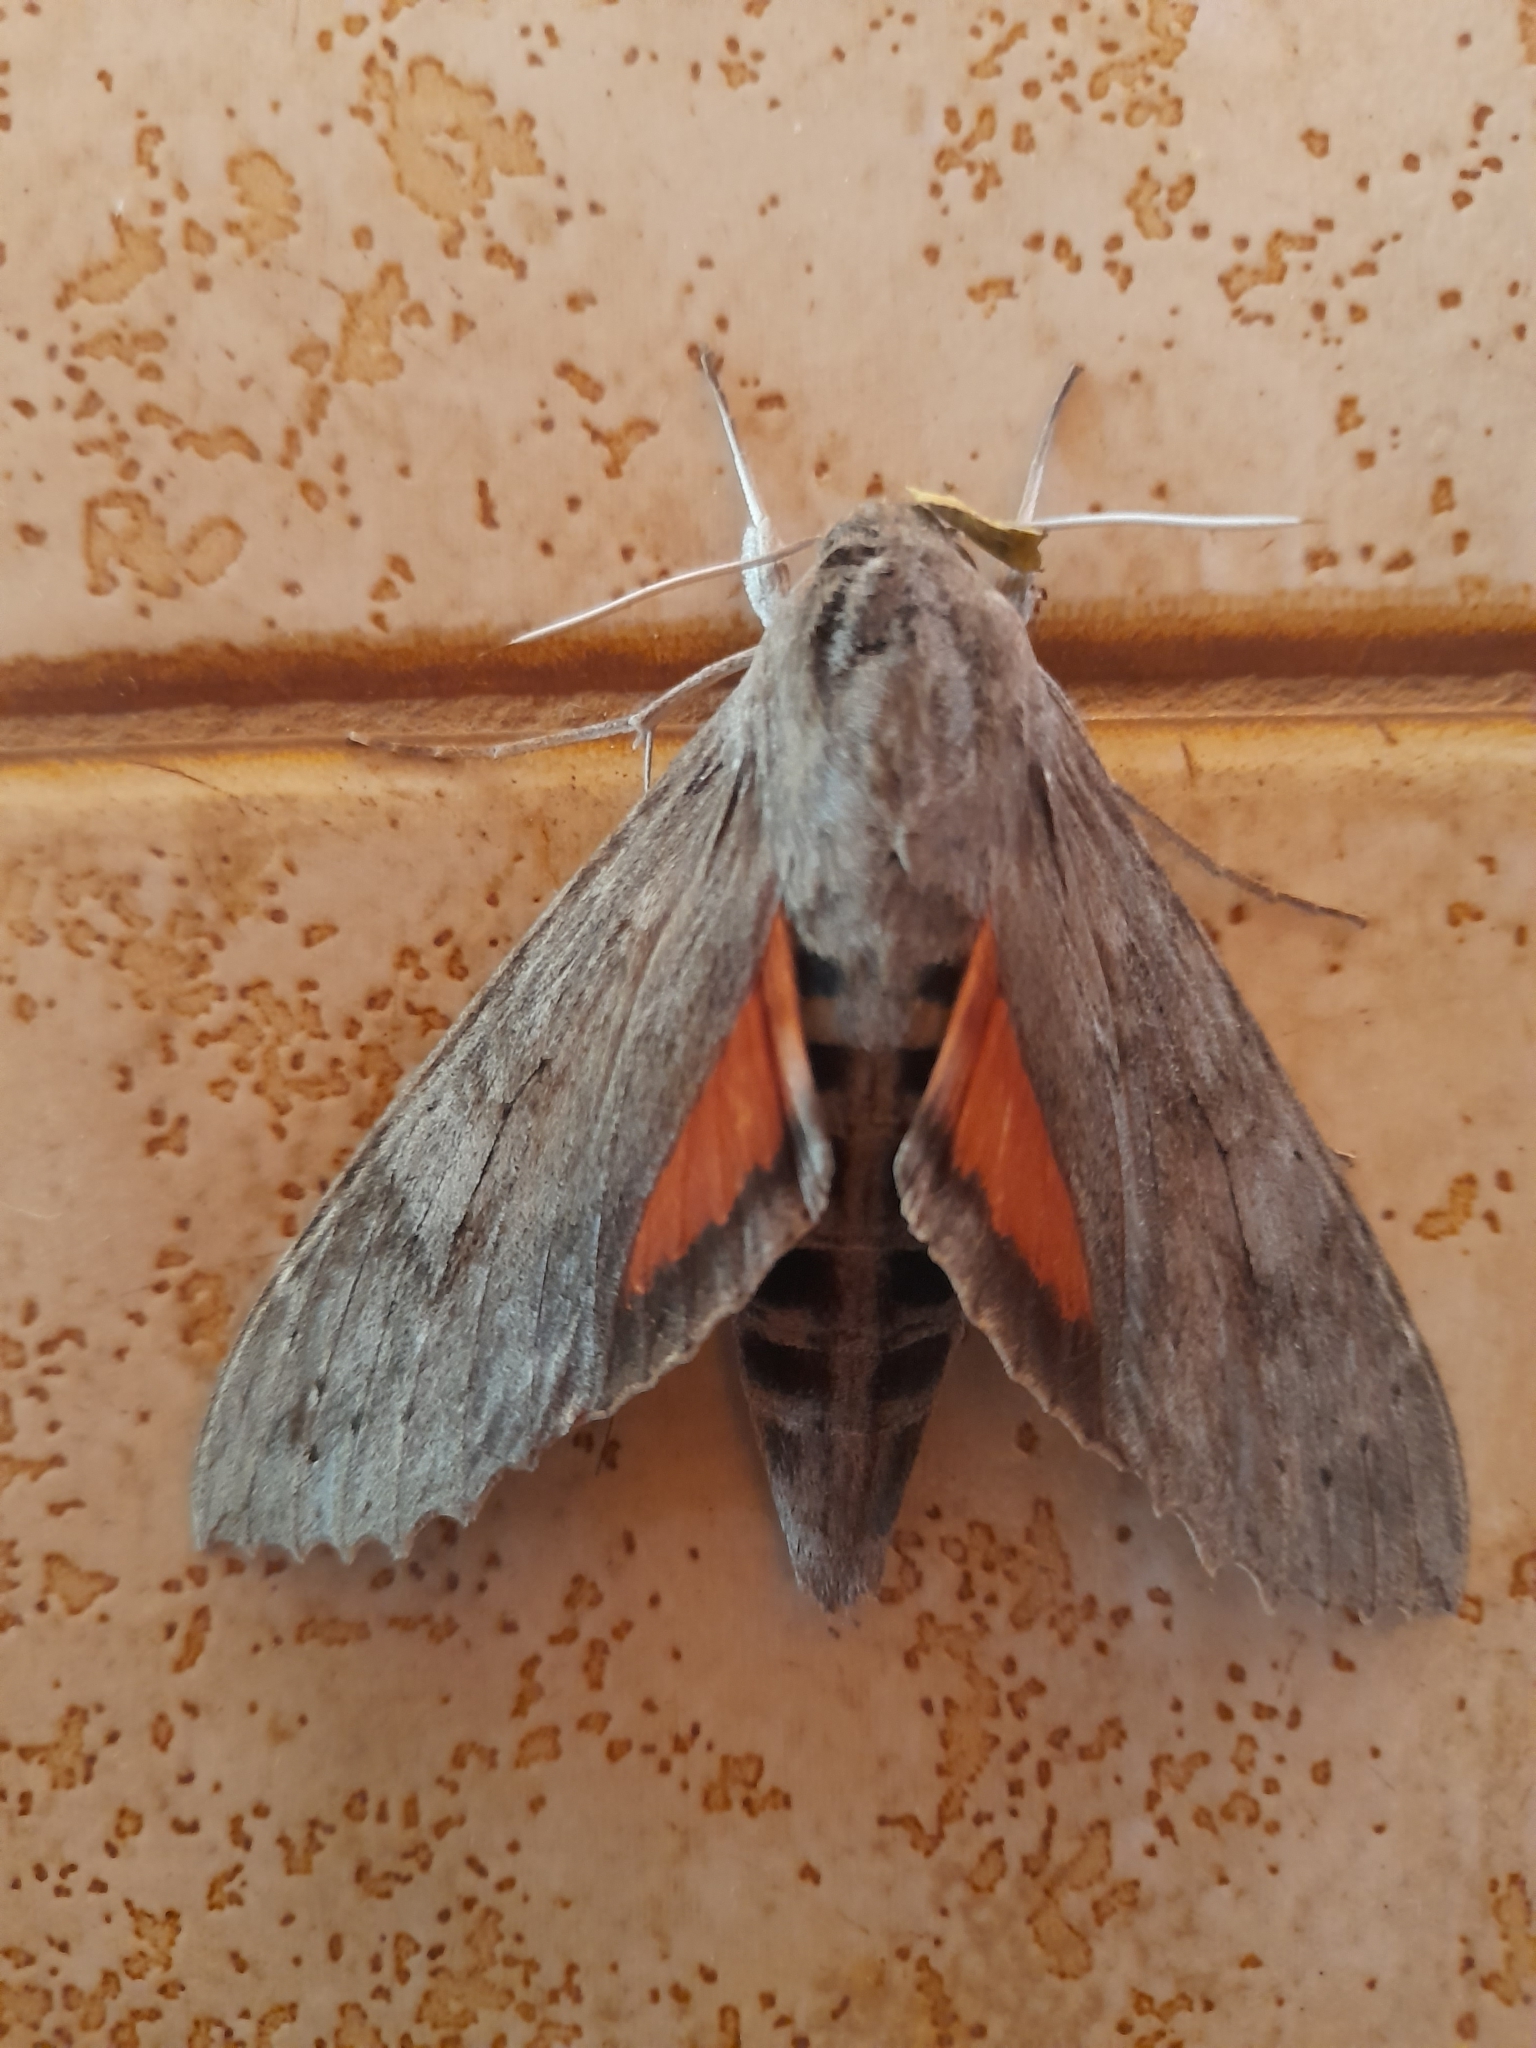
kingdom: Animalia
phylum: Arthropoda
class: Insecta
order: Lepidoptera
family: Sphingidae
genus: Erinnyis
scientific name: Erinnyis ello
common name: Ello sphinx
